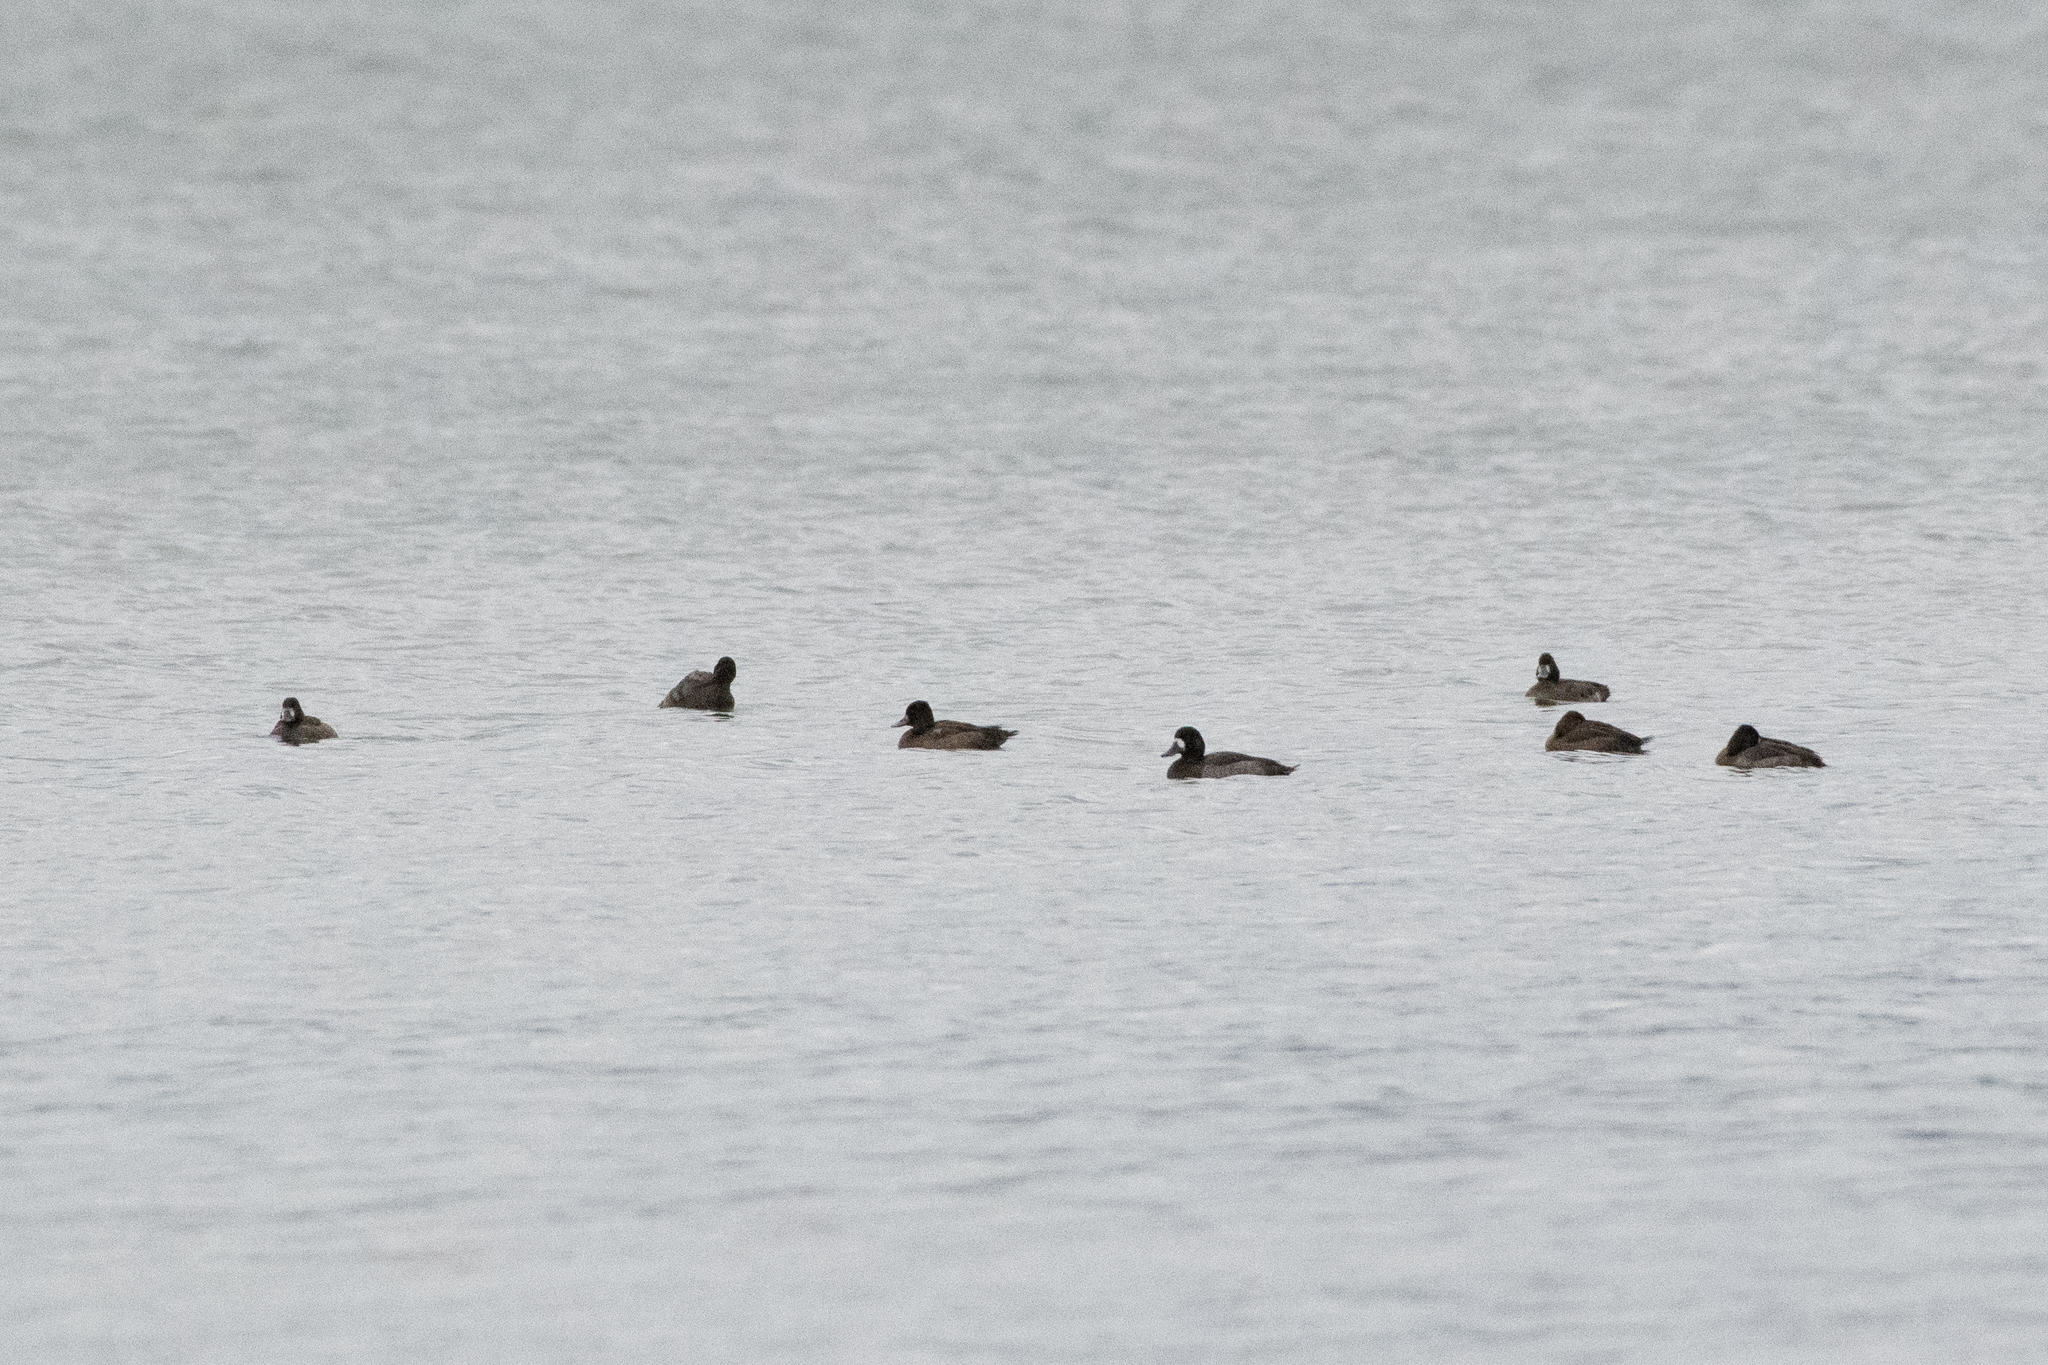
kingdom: Animalia
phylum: Chordata
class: Aves
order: Anseriformes
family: Anatidae
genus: Aythya
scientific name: Aythya affinis
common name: Lesser scaup
